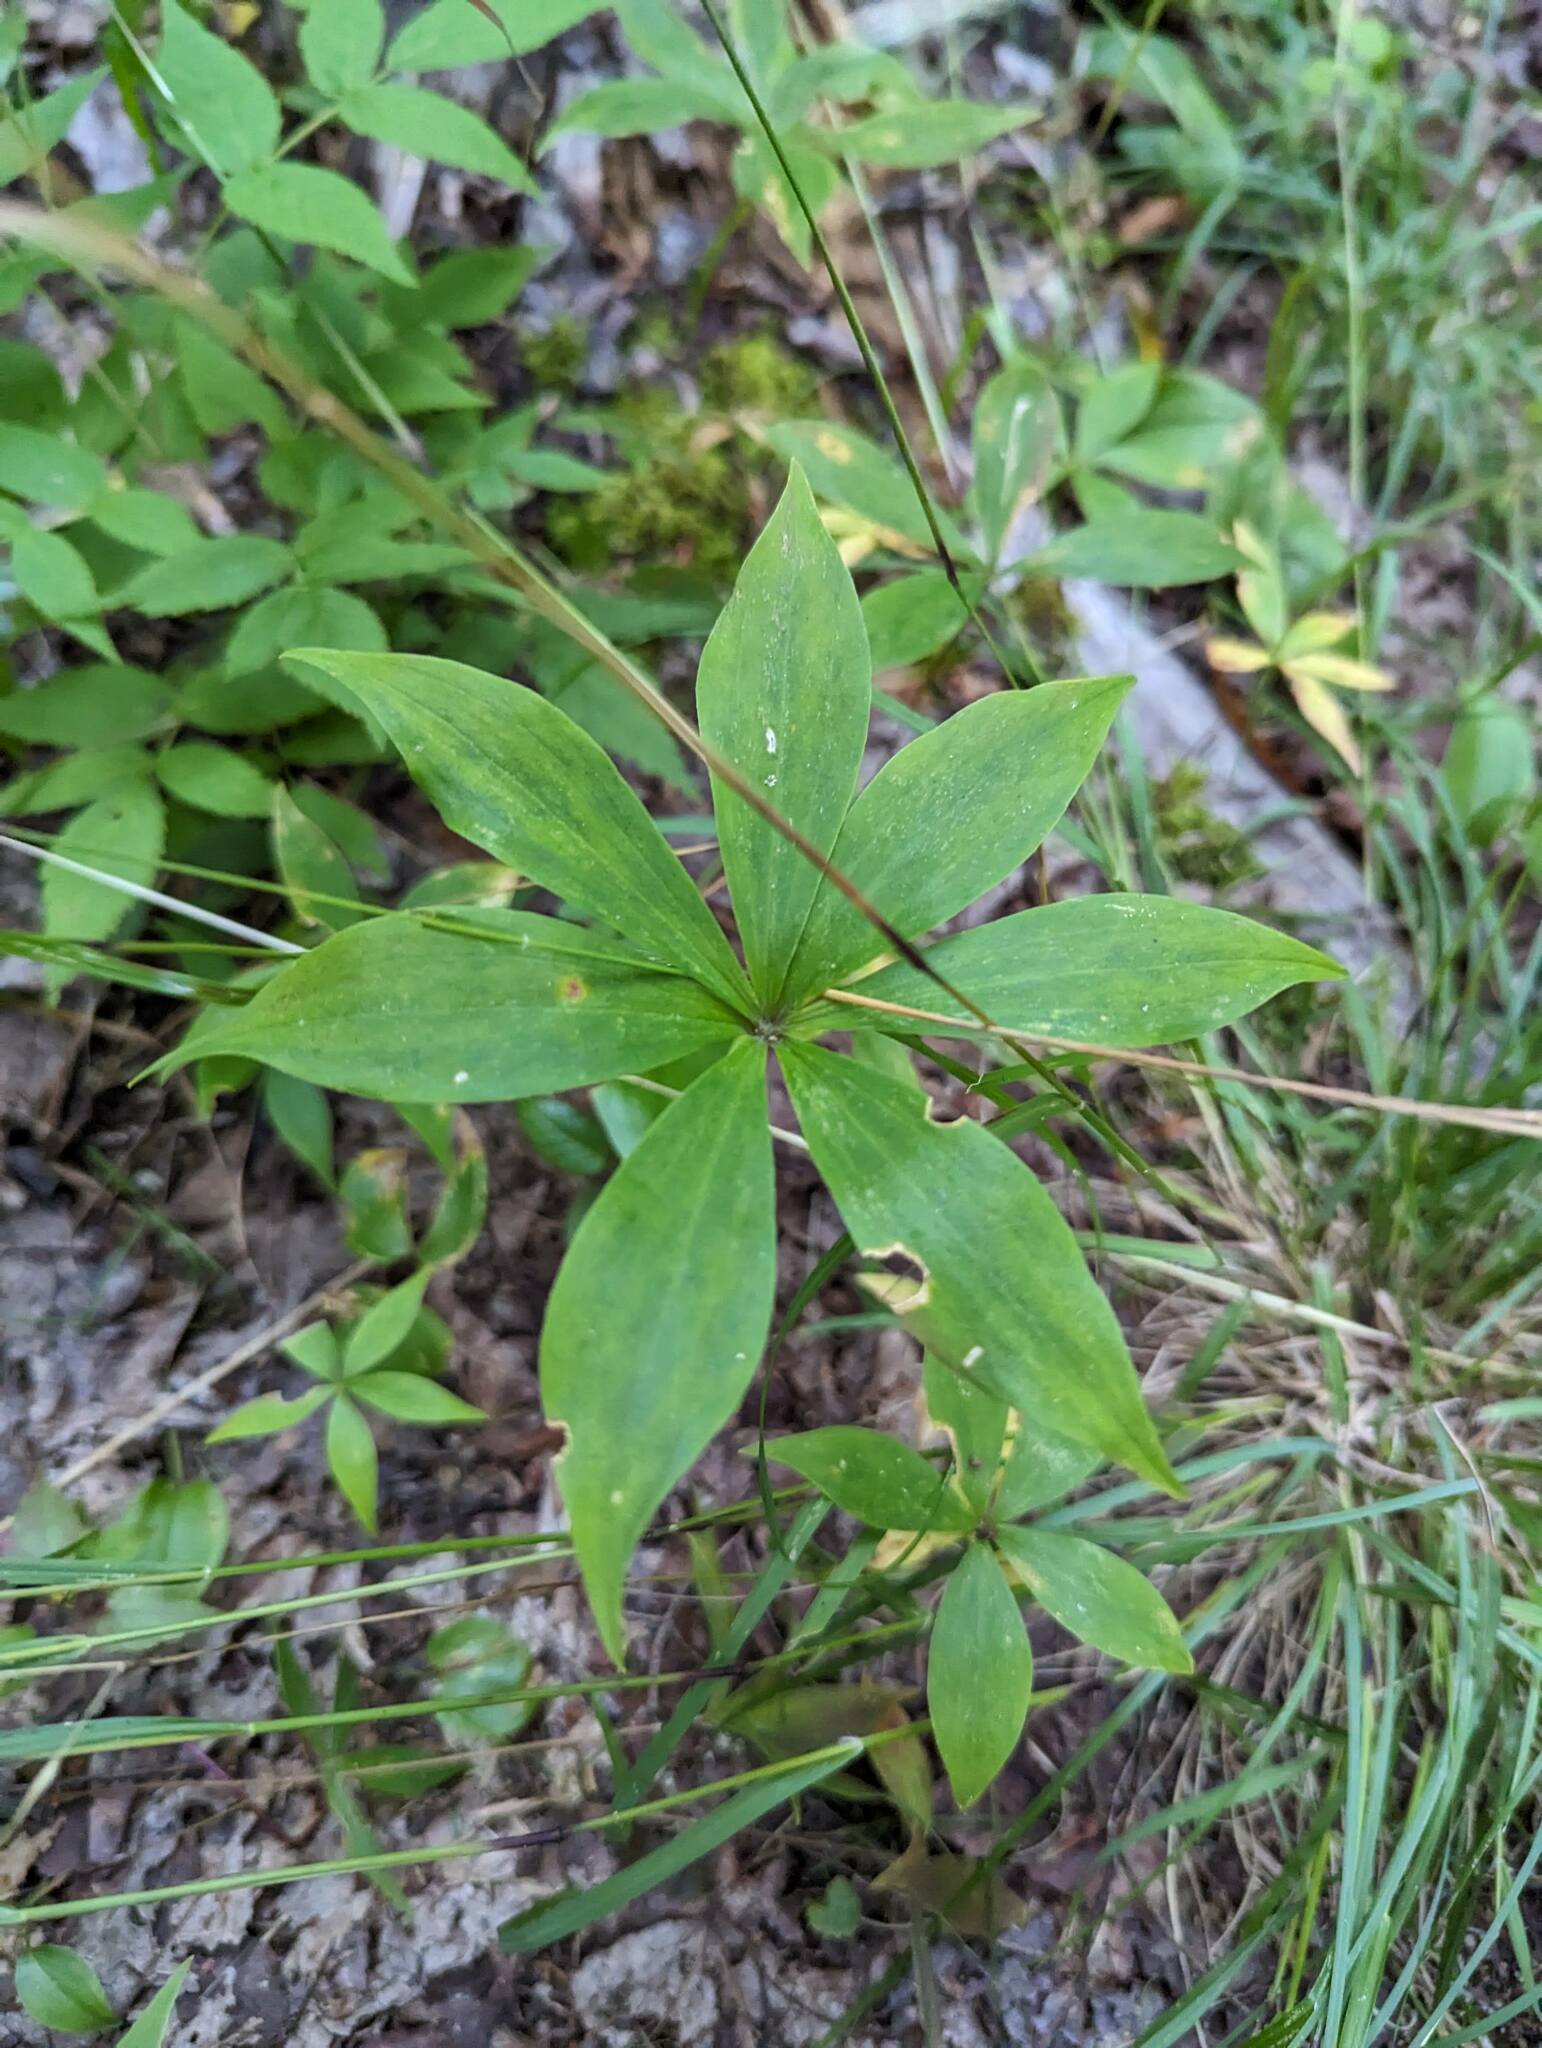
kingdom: Plantae
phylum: Tracheophyta
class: Liliopsida
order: Liliales
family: Liliaceae
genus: Medeola
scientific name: Medeola virginiana
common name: Indian cucumber-root
